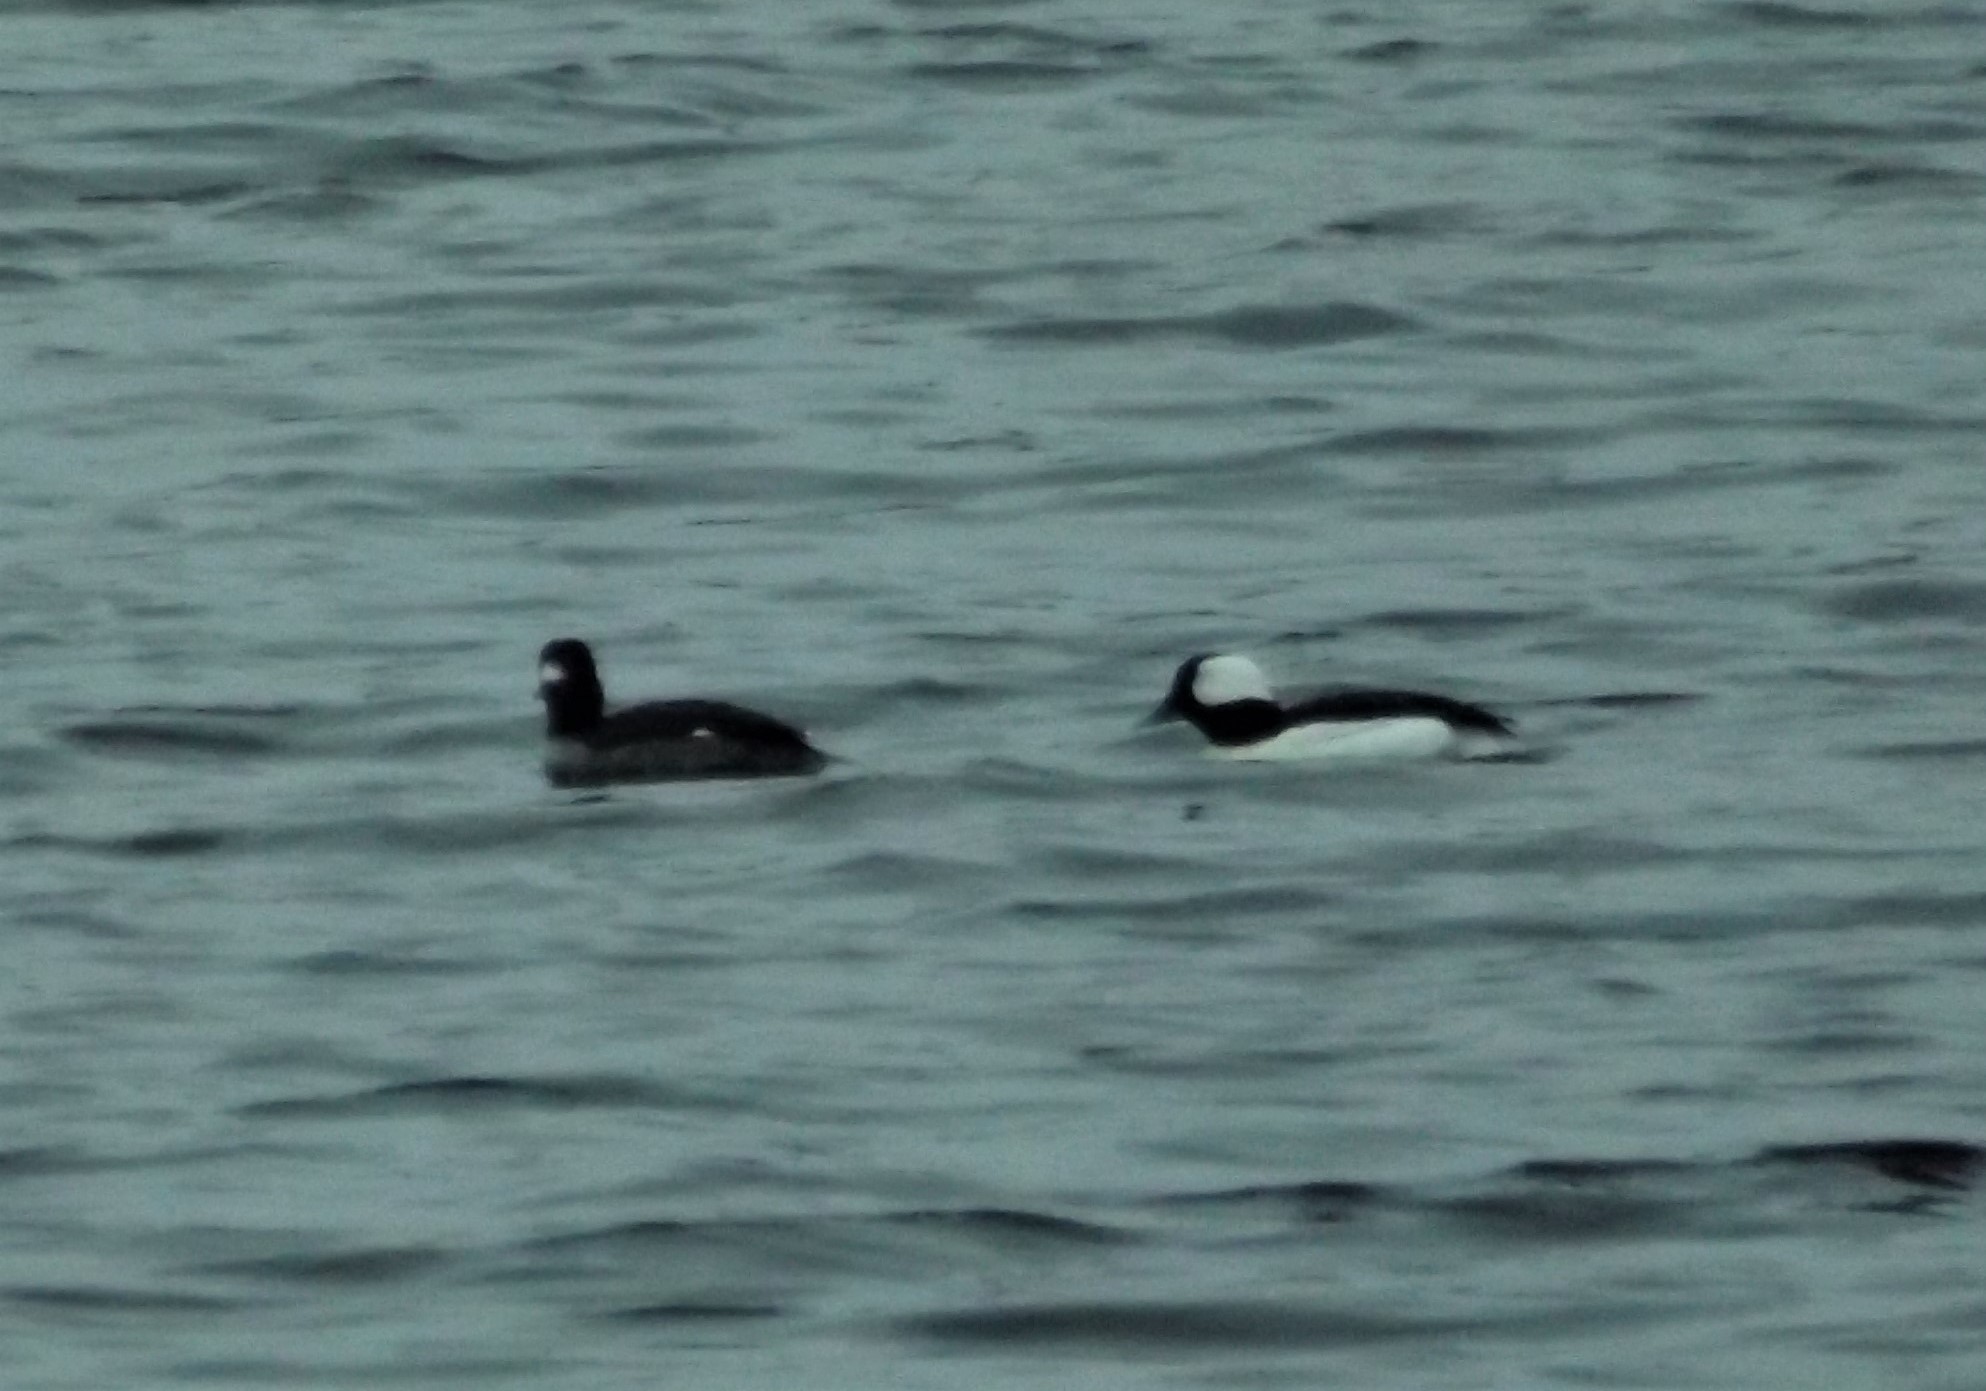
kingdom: Animalia
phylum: Chordata
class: Aves
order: Anseriformes
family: Anatidae
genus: Bucephala
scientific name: Bucephala albeola
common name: Bufflehead
